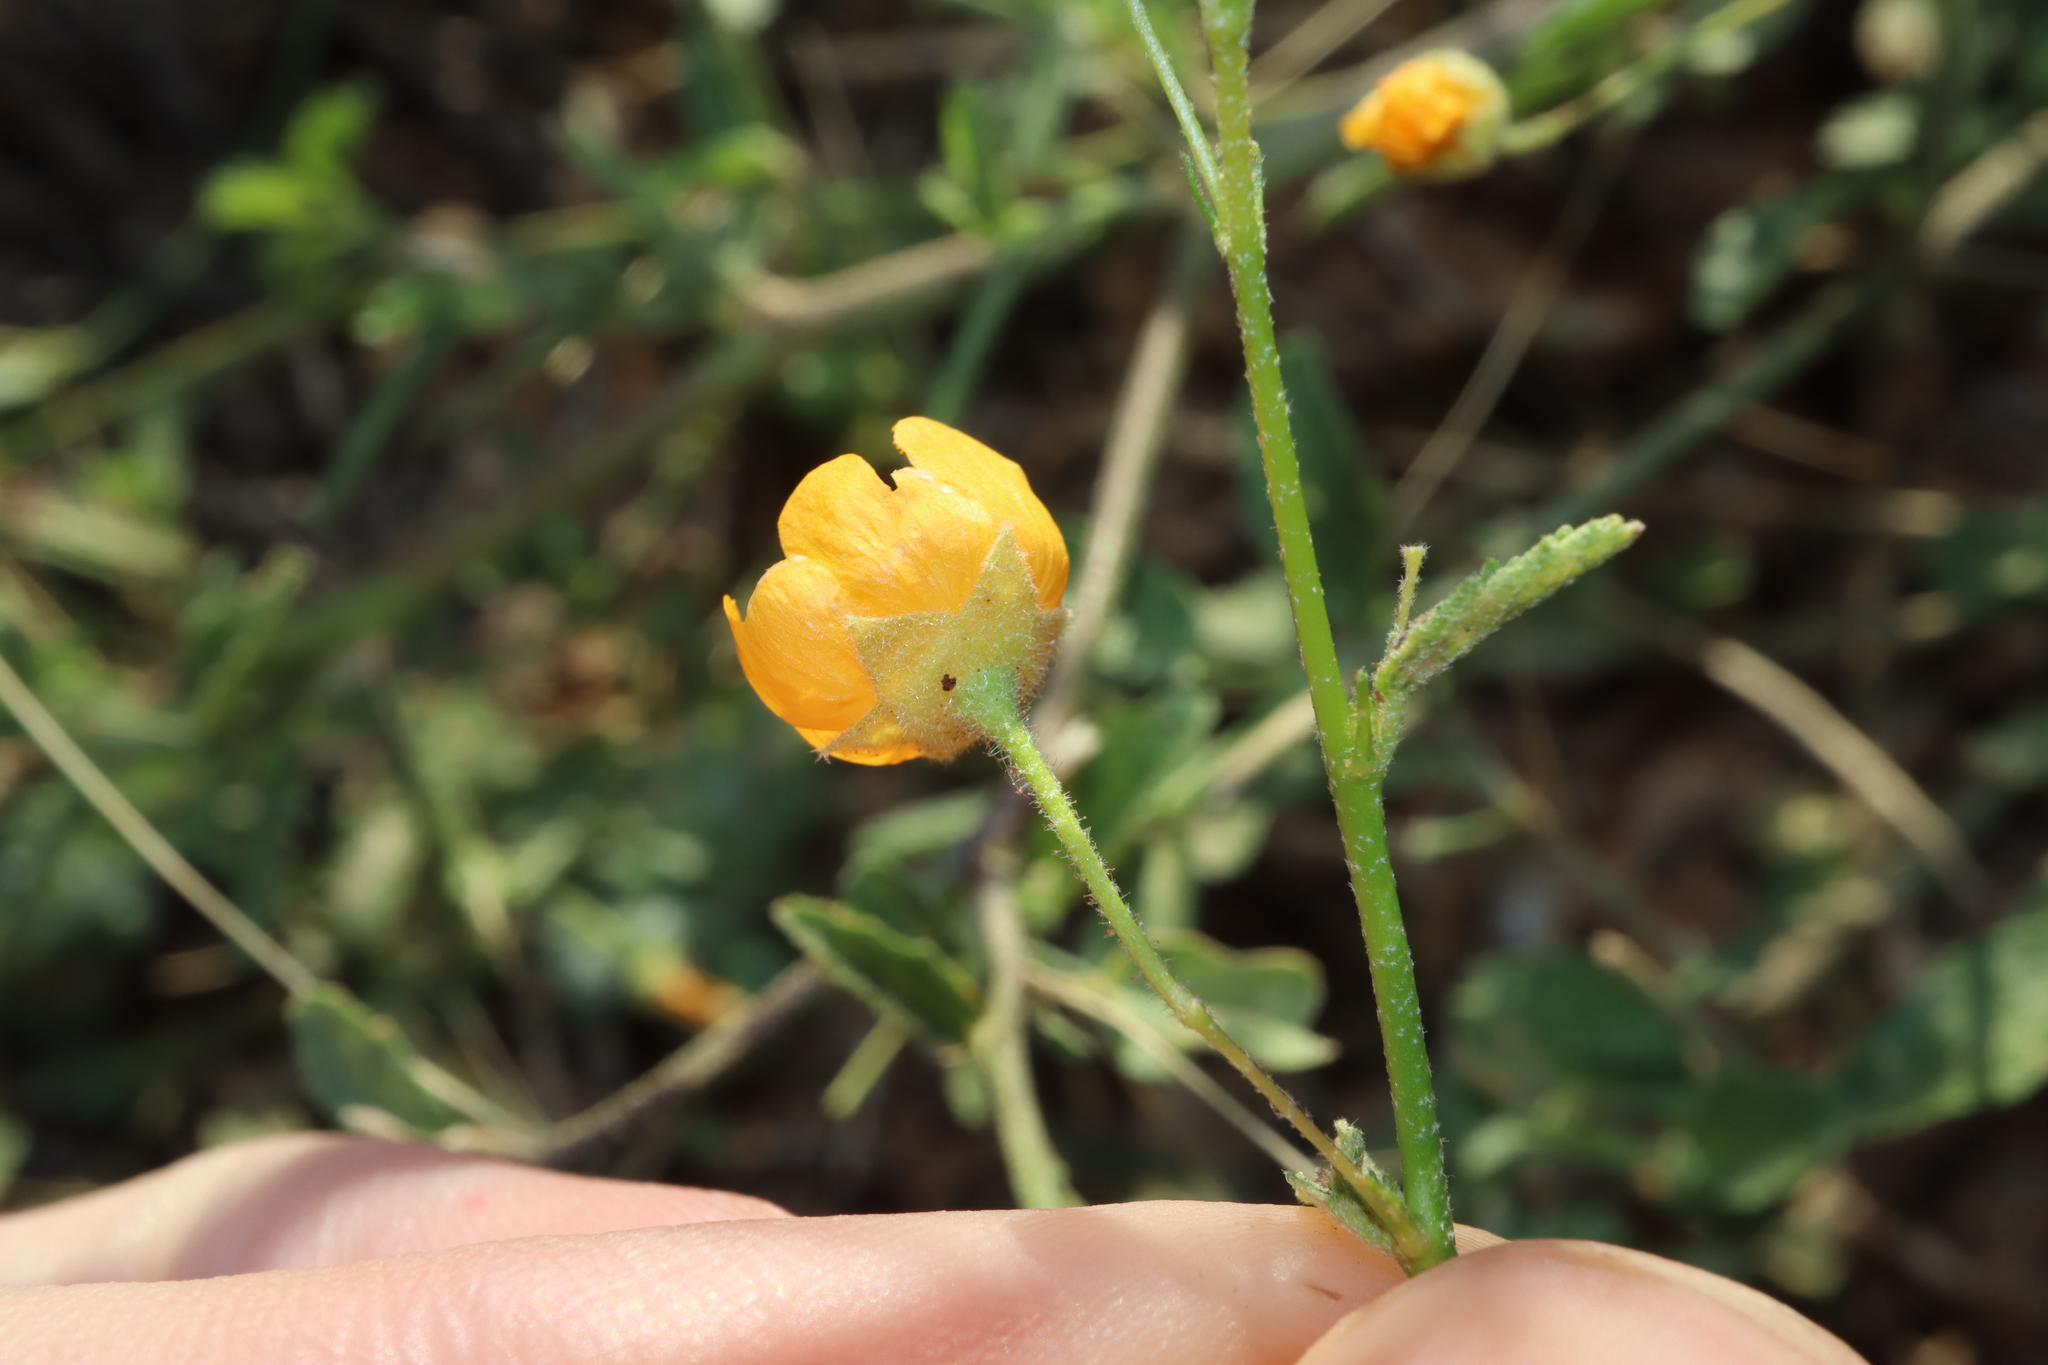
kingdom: Plantae
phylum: Tracheophyta
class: Magnoliopsida
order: Malvales
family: Malvaceae
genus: Sida
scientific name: Sida trichopoda
